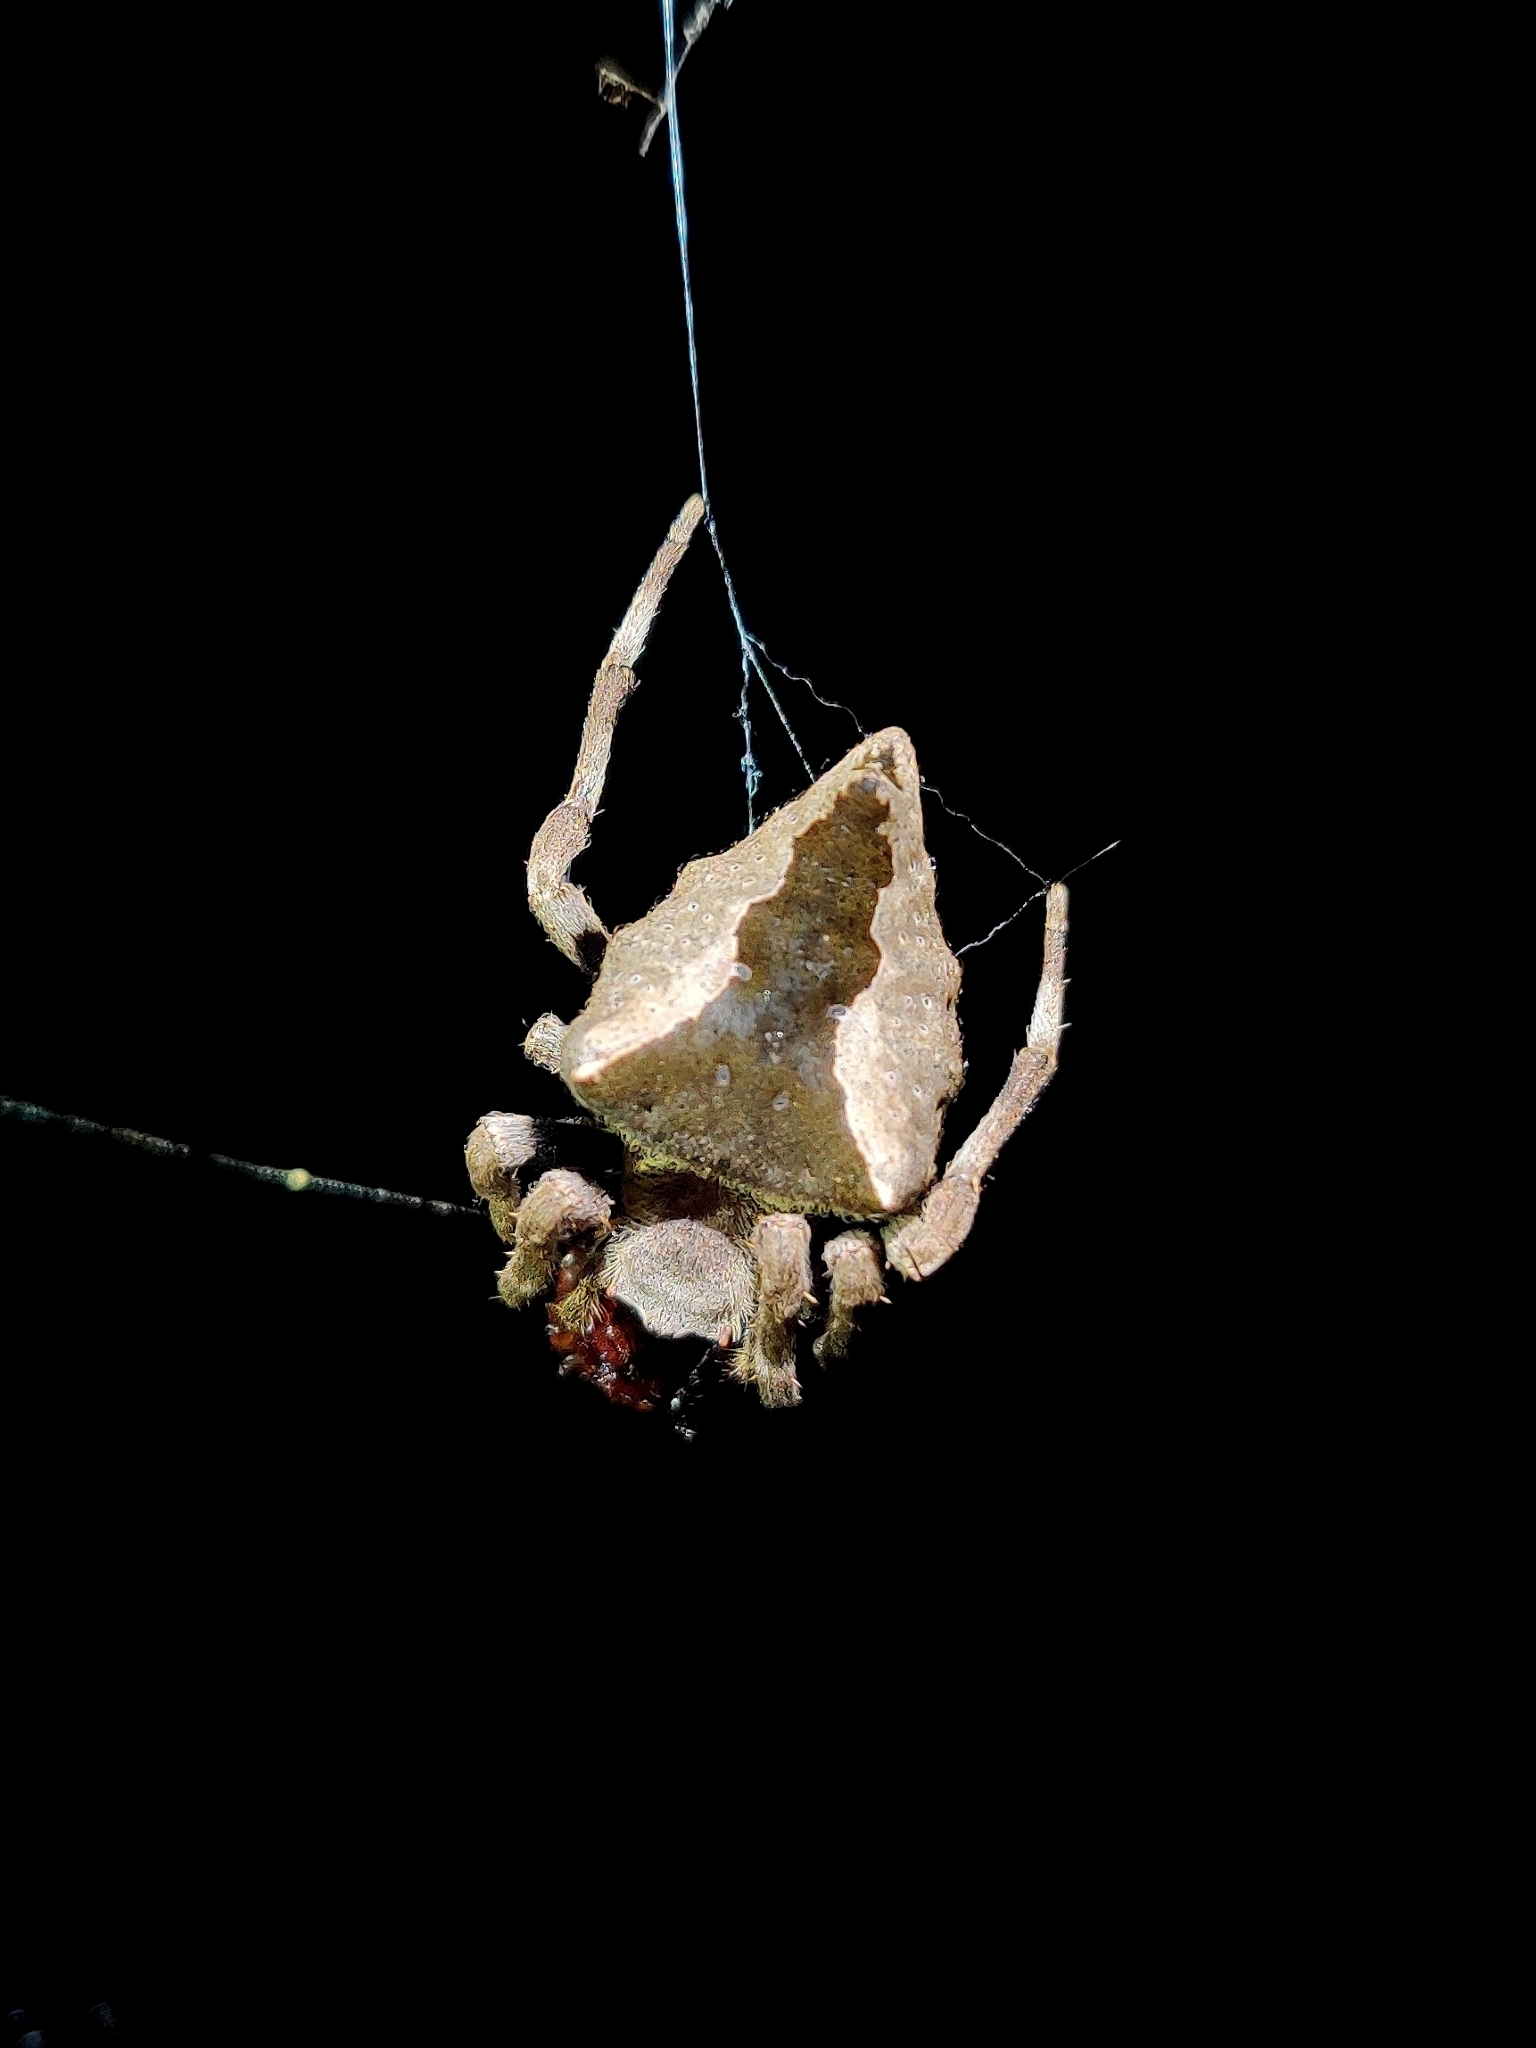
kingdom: Animalia
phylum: Arthropoda
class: Arachnida
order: Araneae
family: Araneidae
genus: Parawixia
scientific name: Parawixia dehaani
